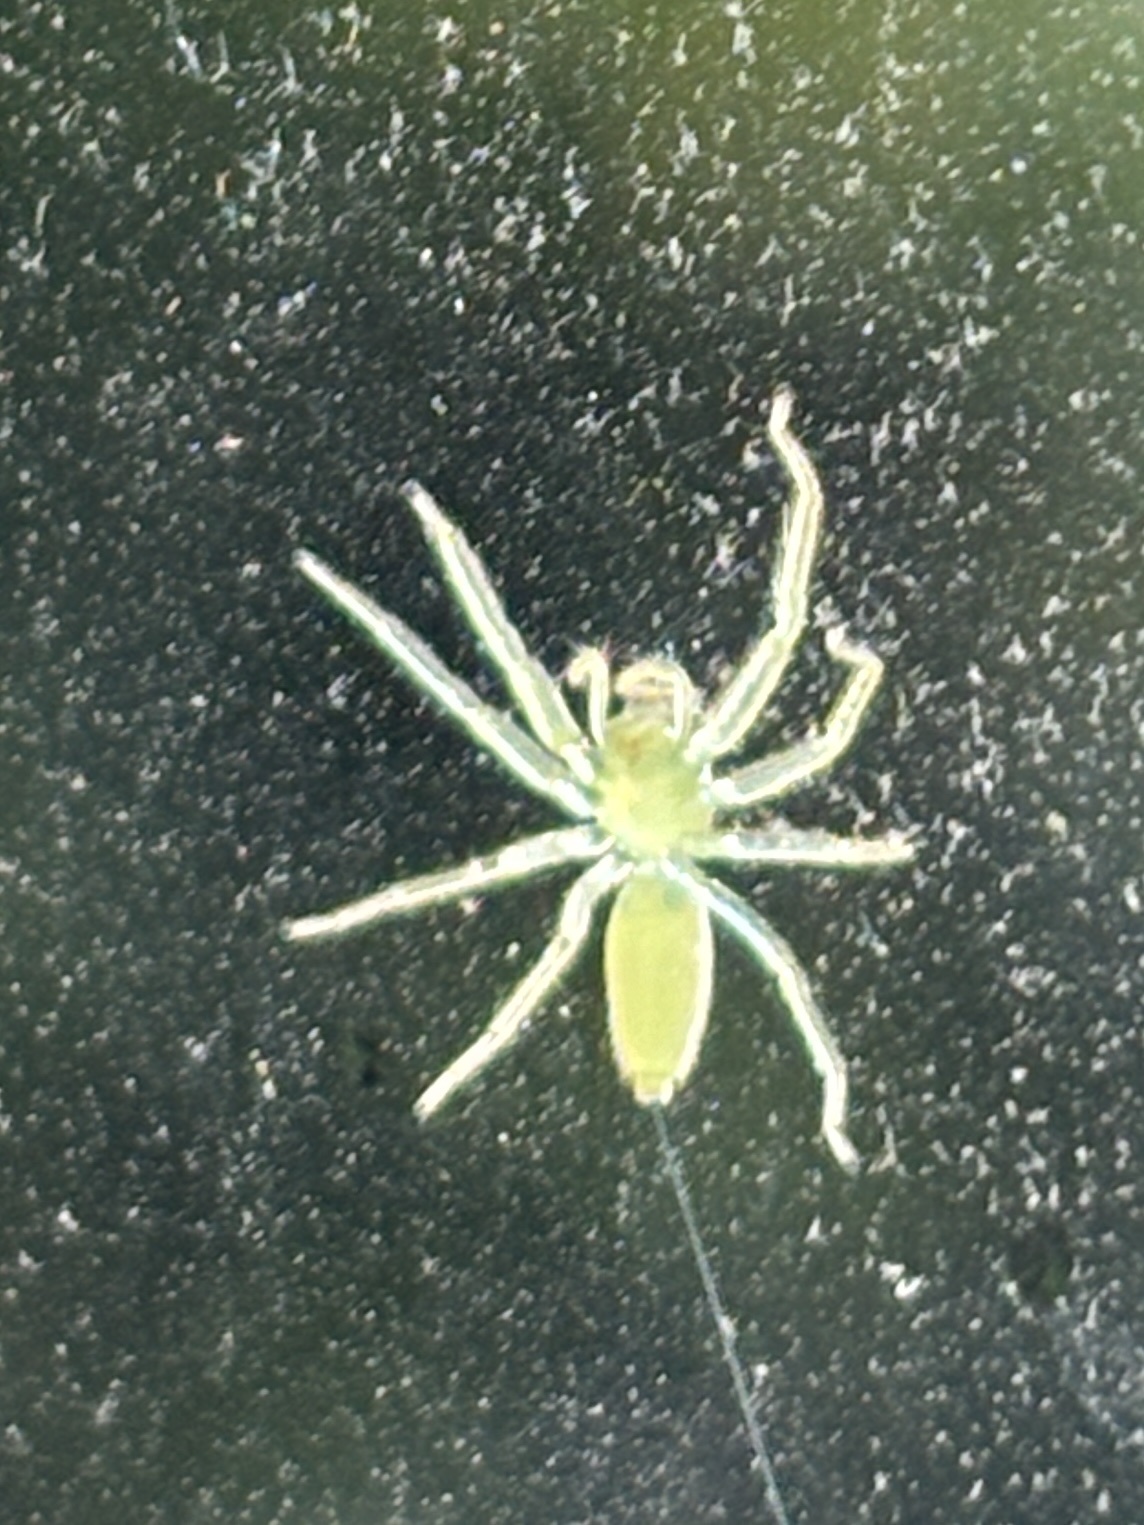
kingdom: Animalia
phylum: Arthropoda
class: Arachnida
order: Araneae
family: Salticidae
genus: Lyssomanes
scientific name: Lyssomanes viridis
